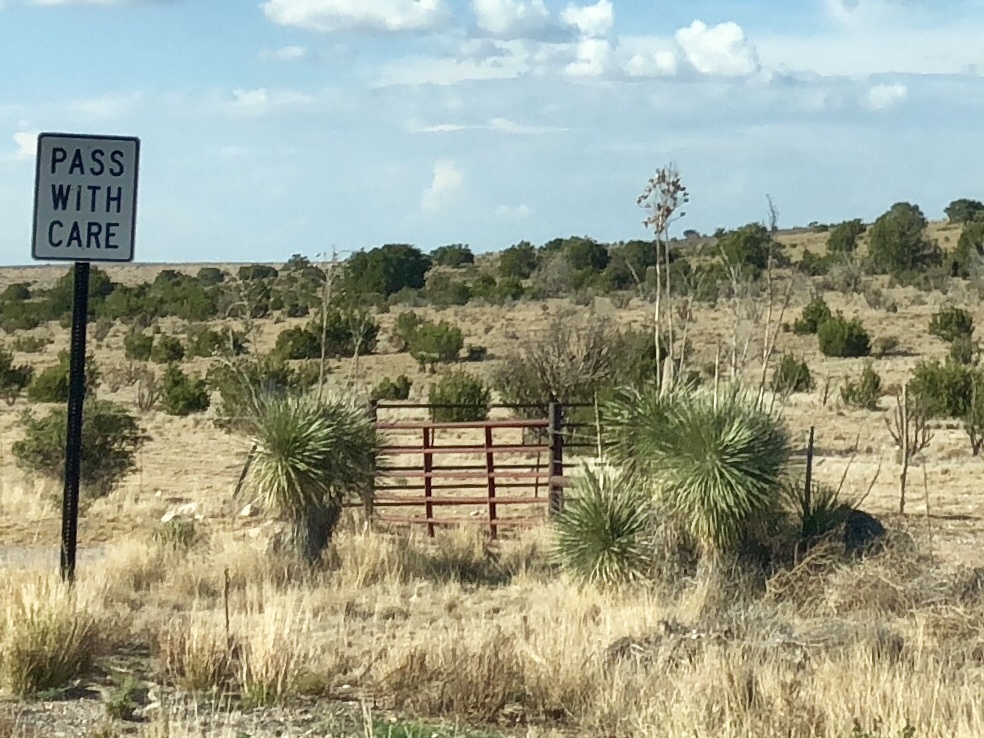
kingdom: Plantae
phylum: Tracheophyta
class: Liliopsida
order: Asparagales
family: Asparagaceae
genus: Yucca
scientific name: Yucca elata
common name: Palmella
